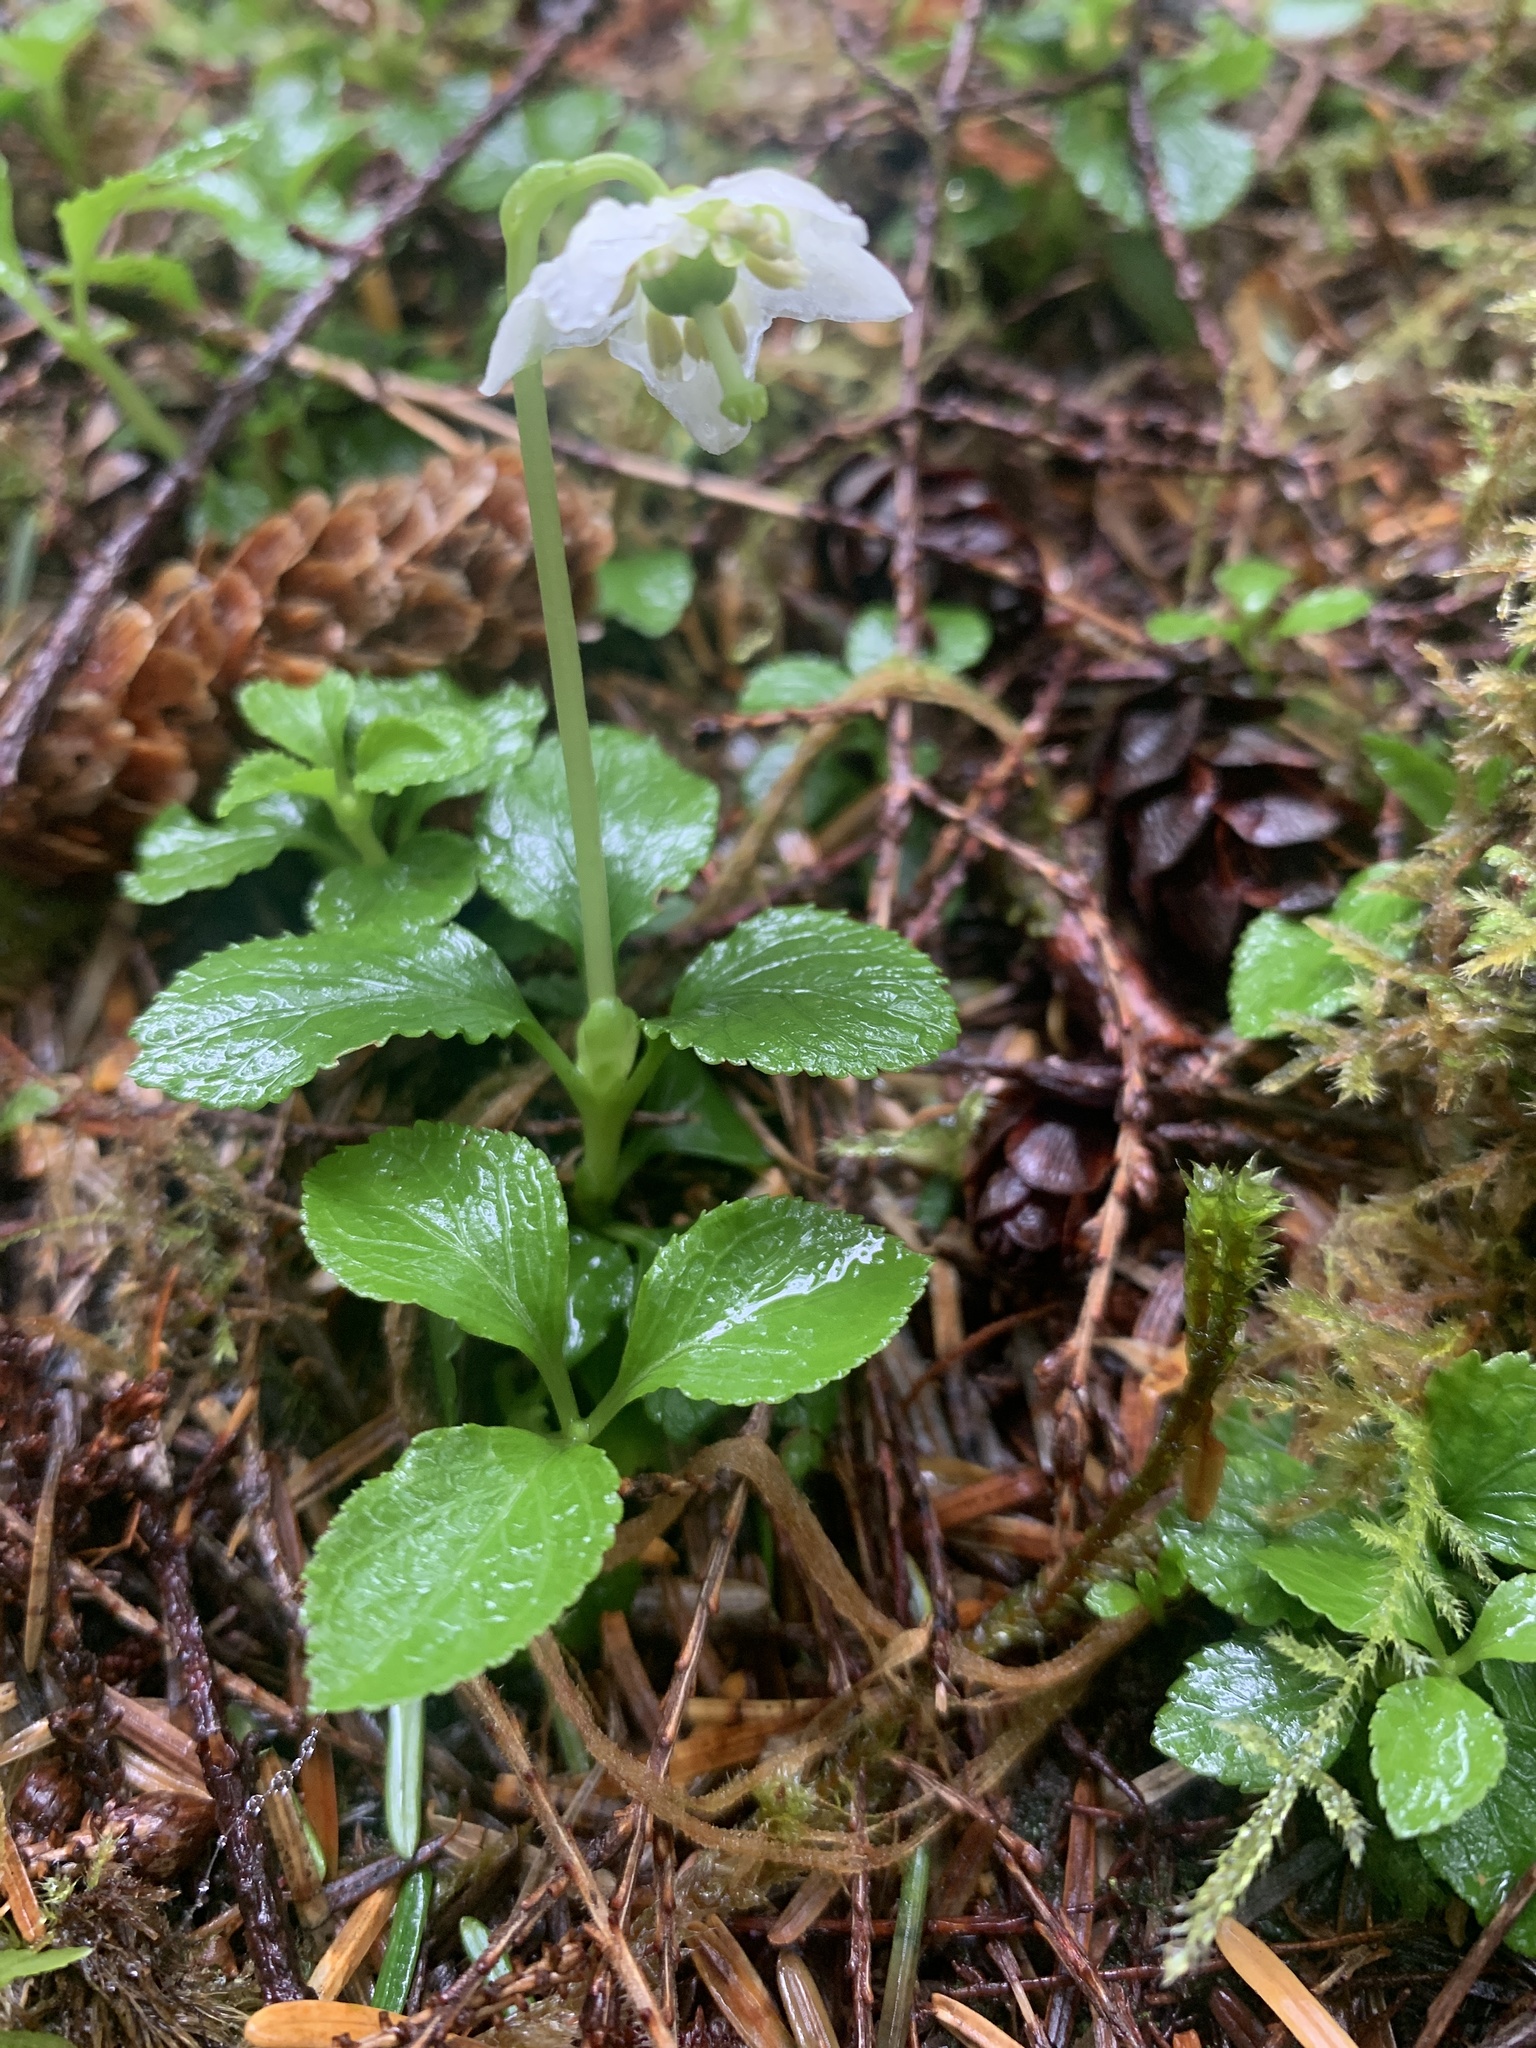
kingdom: Plantae
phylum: Tracheophyta
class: Magnoliopsida
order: Ericales
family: Ericaceae
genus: Moneses
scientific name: Moneses uniflora
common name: One-flowered wintergreen
